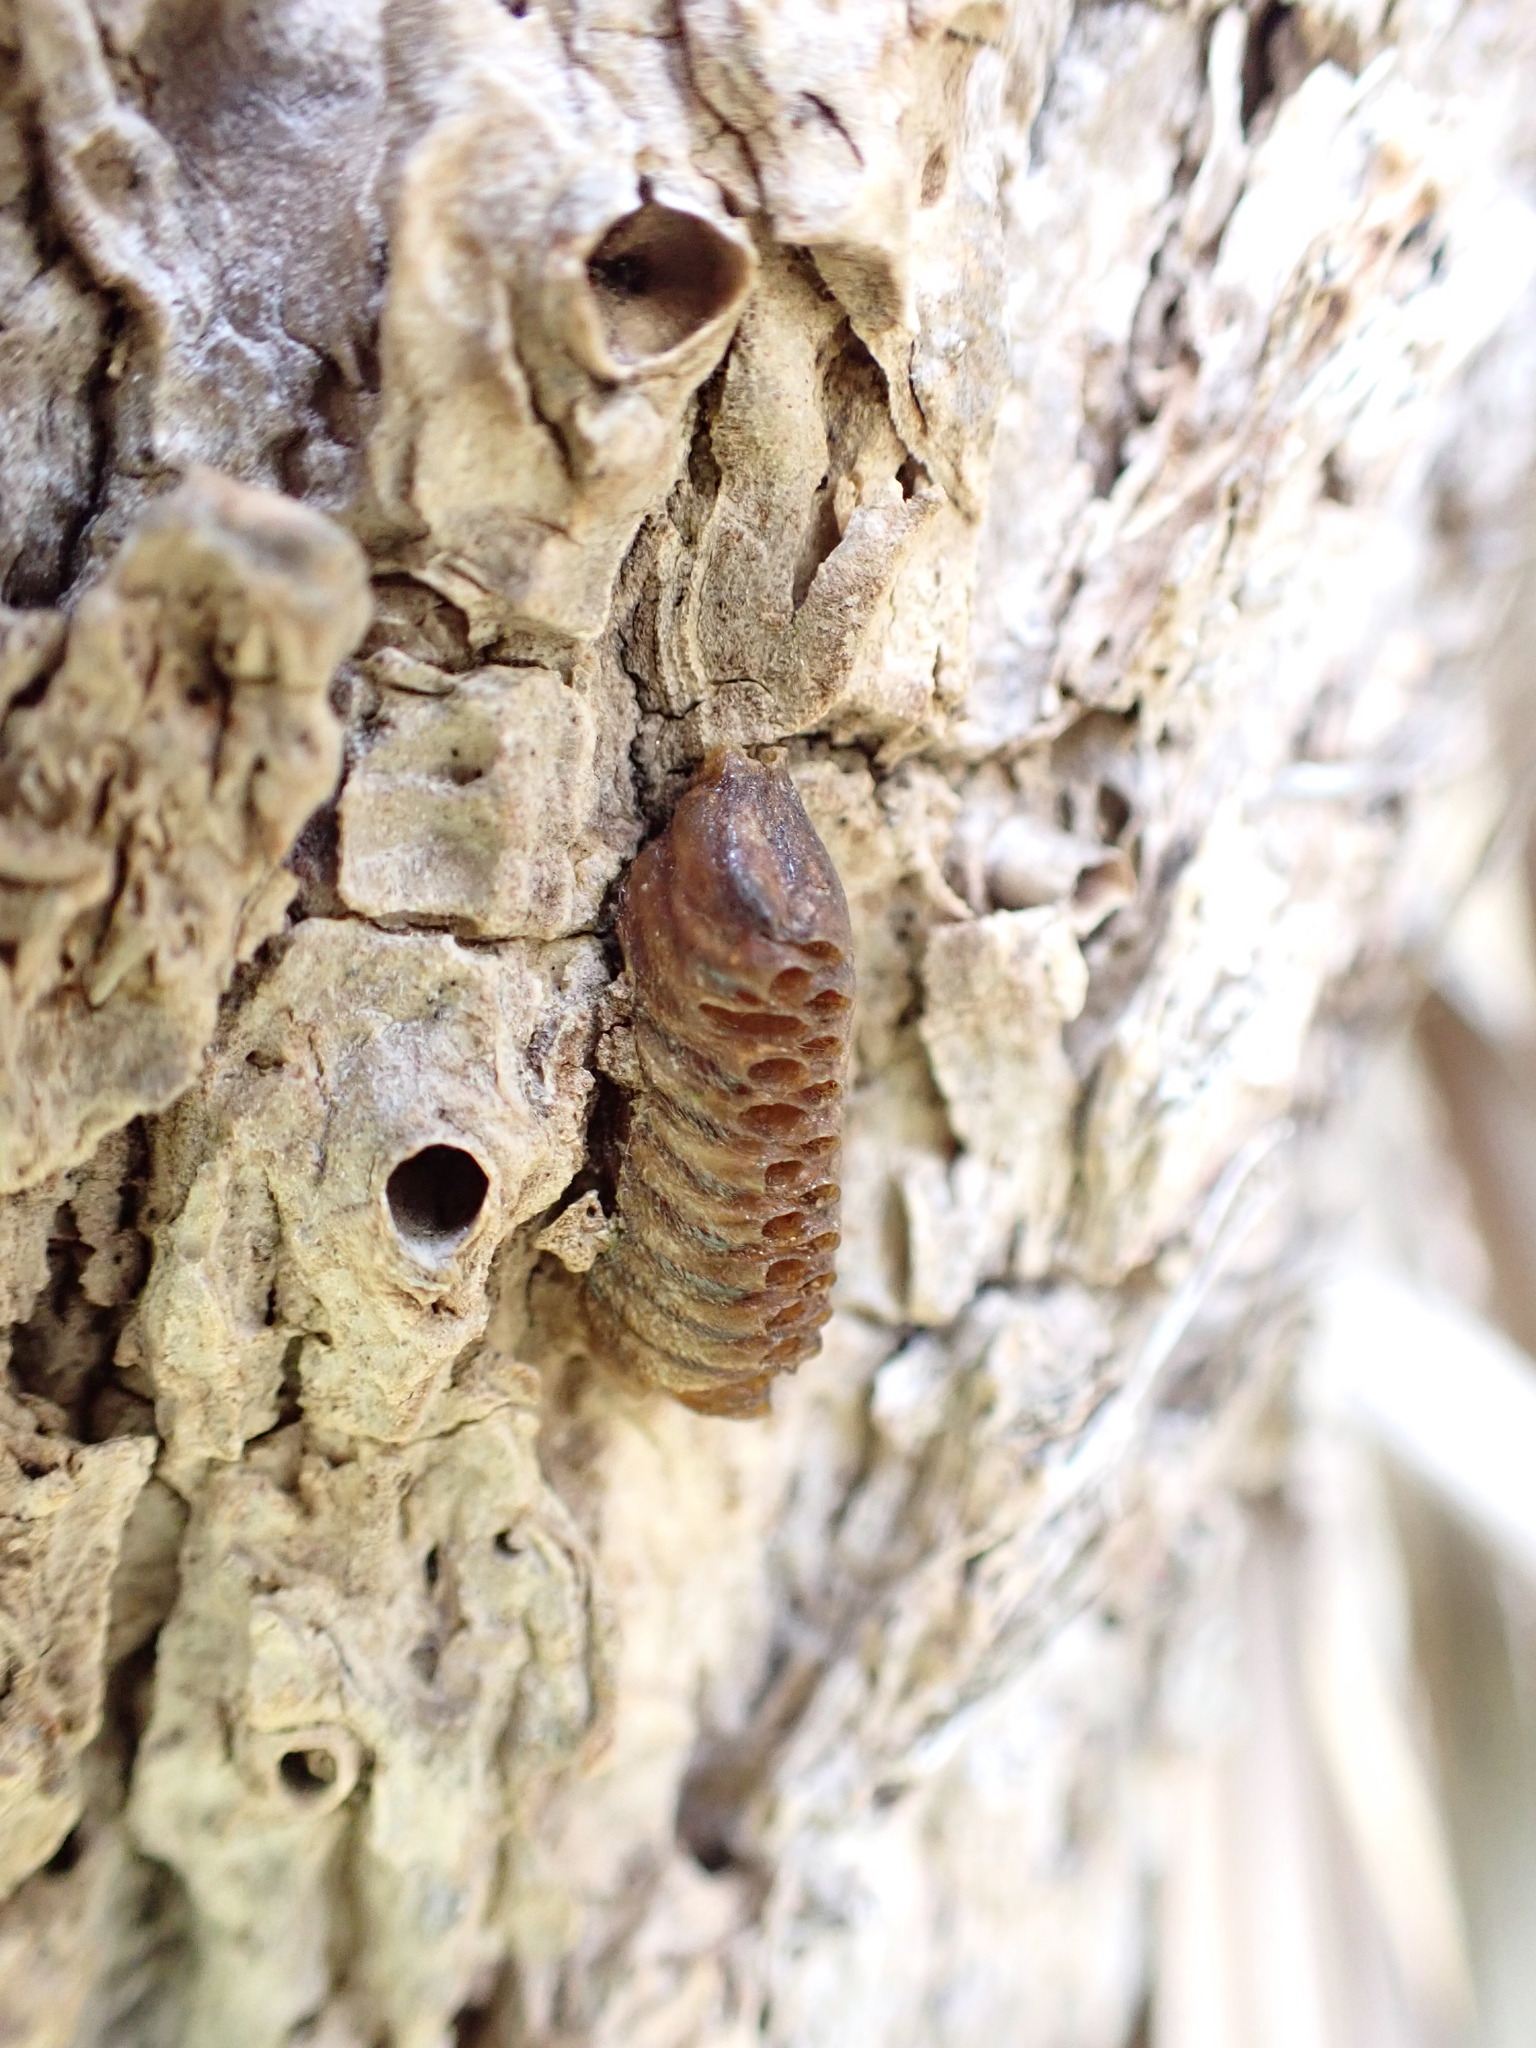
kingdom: Animalia
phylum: Arthropoda
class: Insecta
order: Mantodea
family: Mantidae
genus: Orthodera
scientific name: Orthodera novaezealandiae
